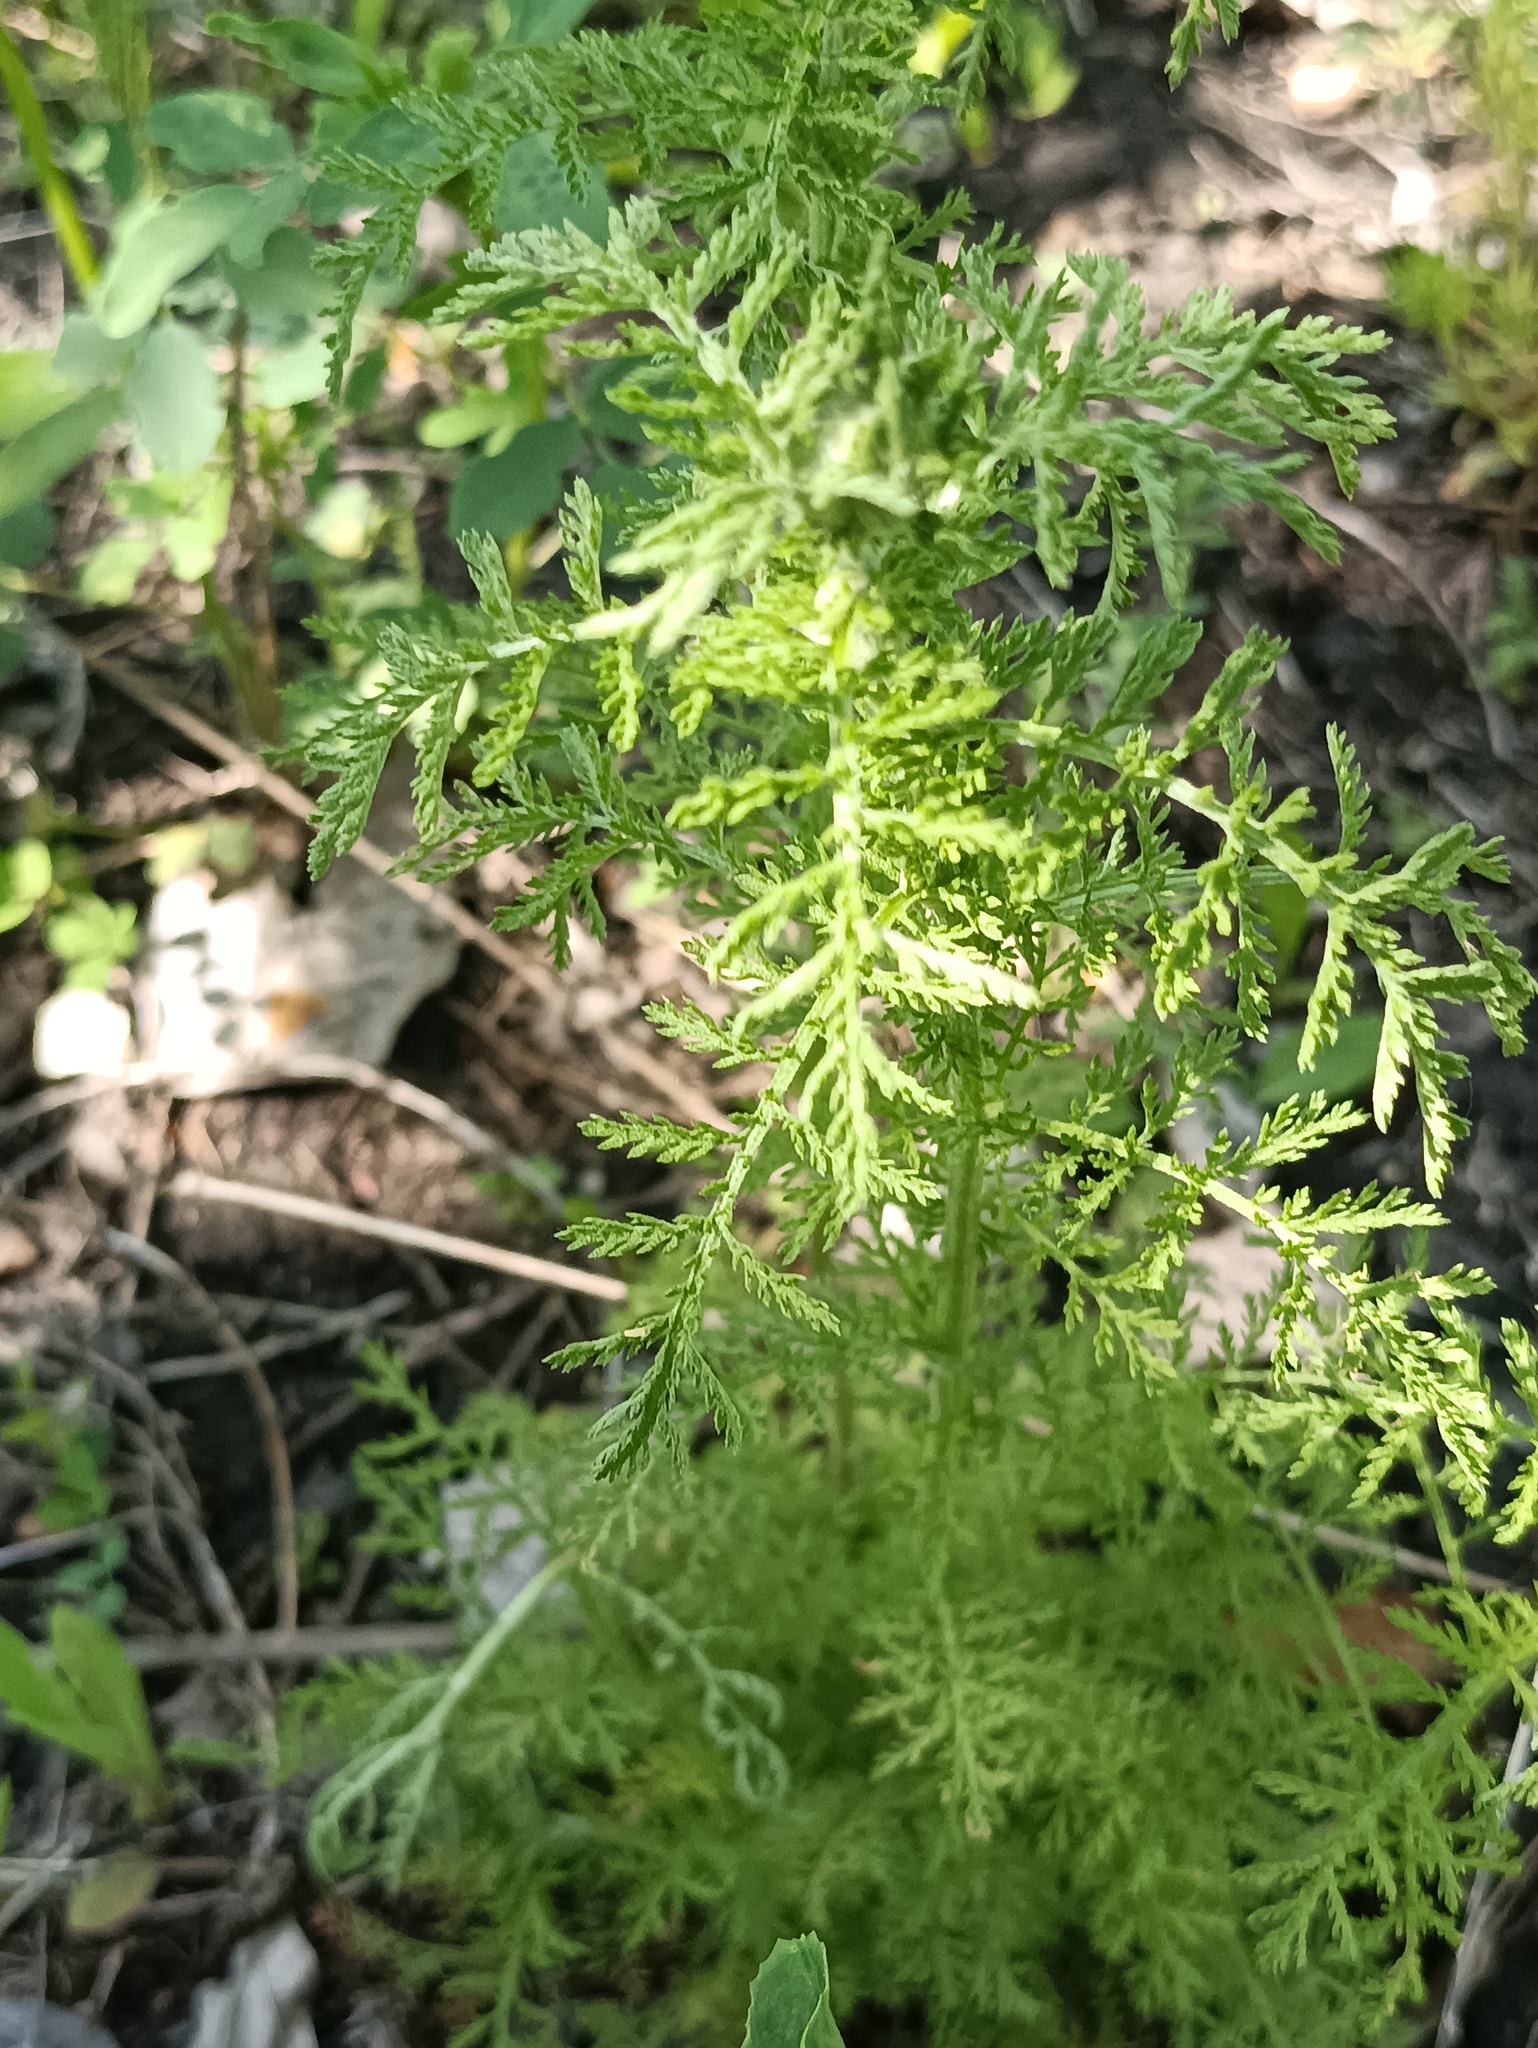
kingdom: Plantae
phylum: Tracheophyta
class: Magnoliopsida
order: Asterales
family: Asteraceae
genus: Achillea
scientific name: Achillea nobilis
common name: Noble yarrow
